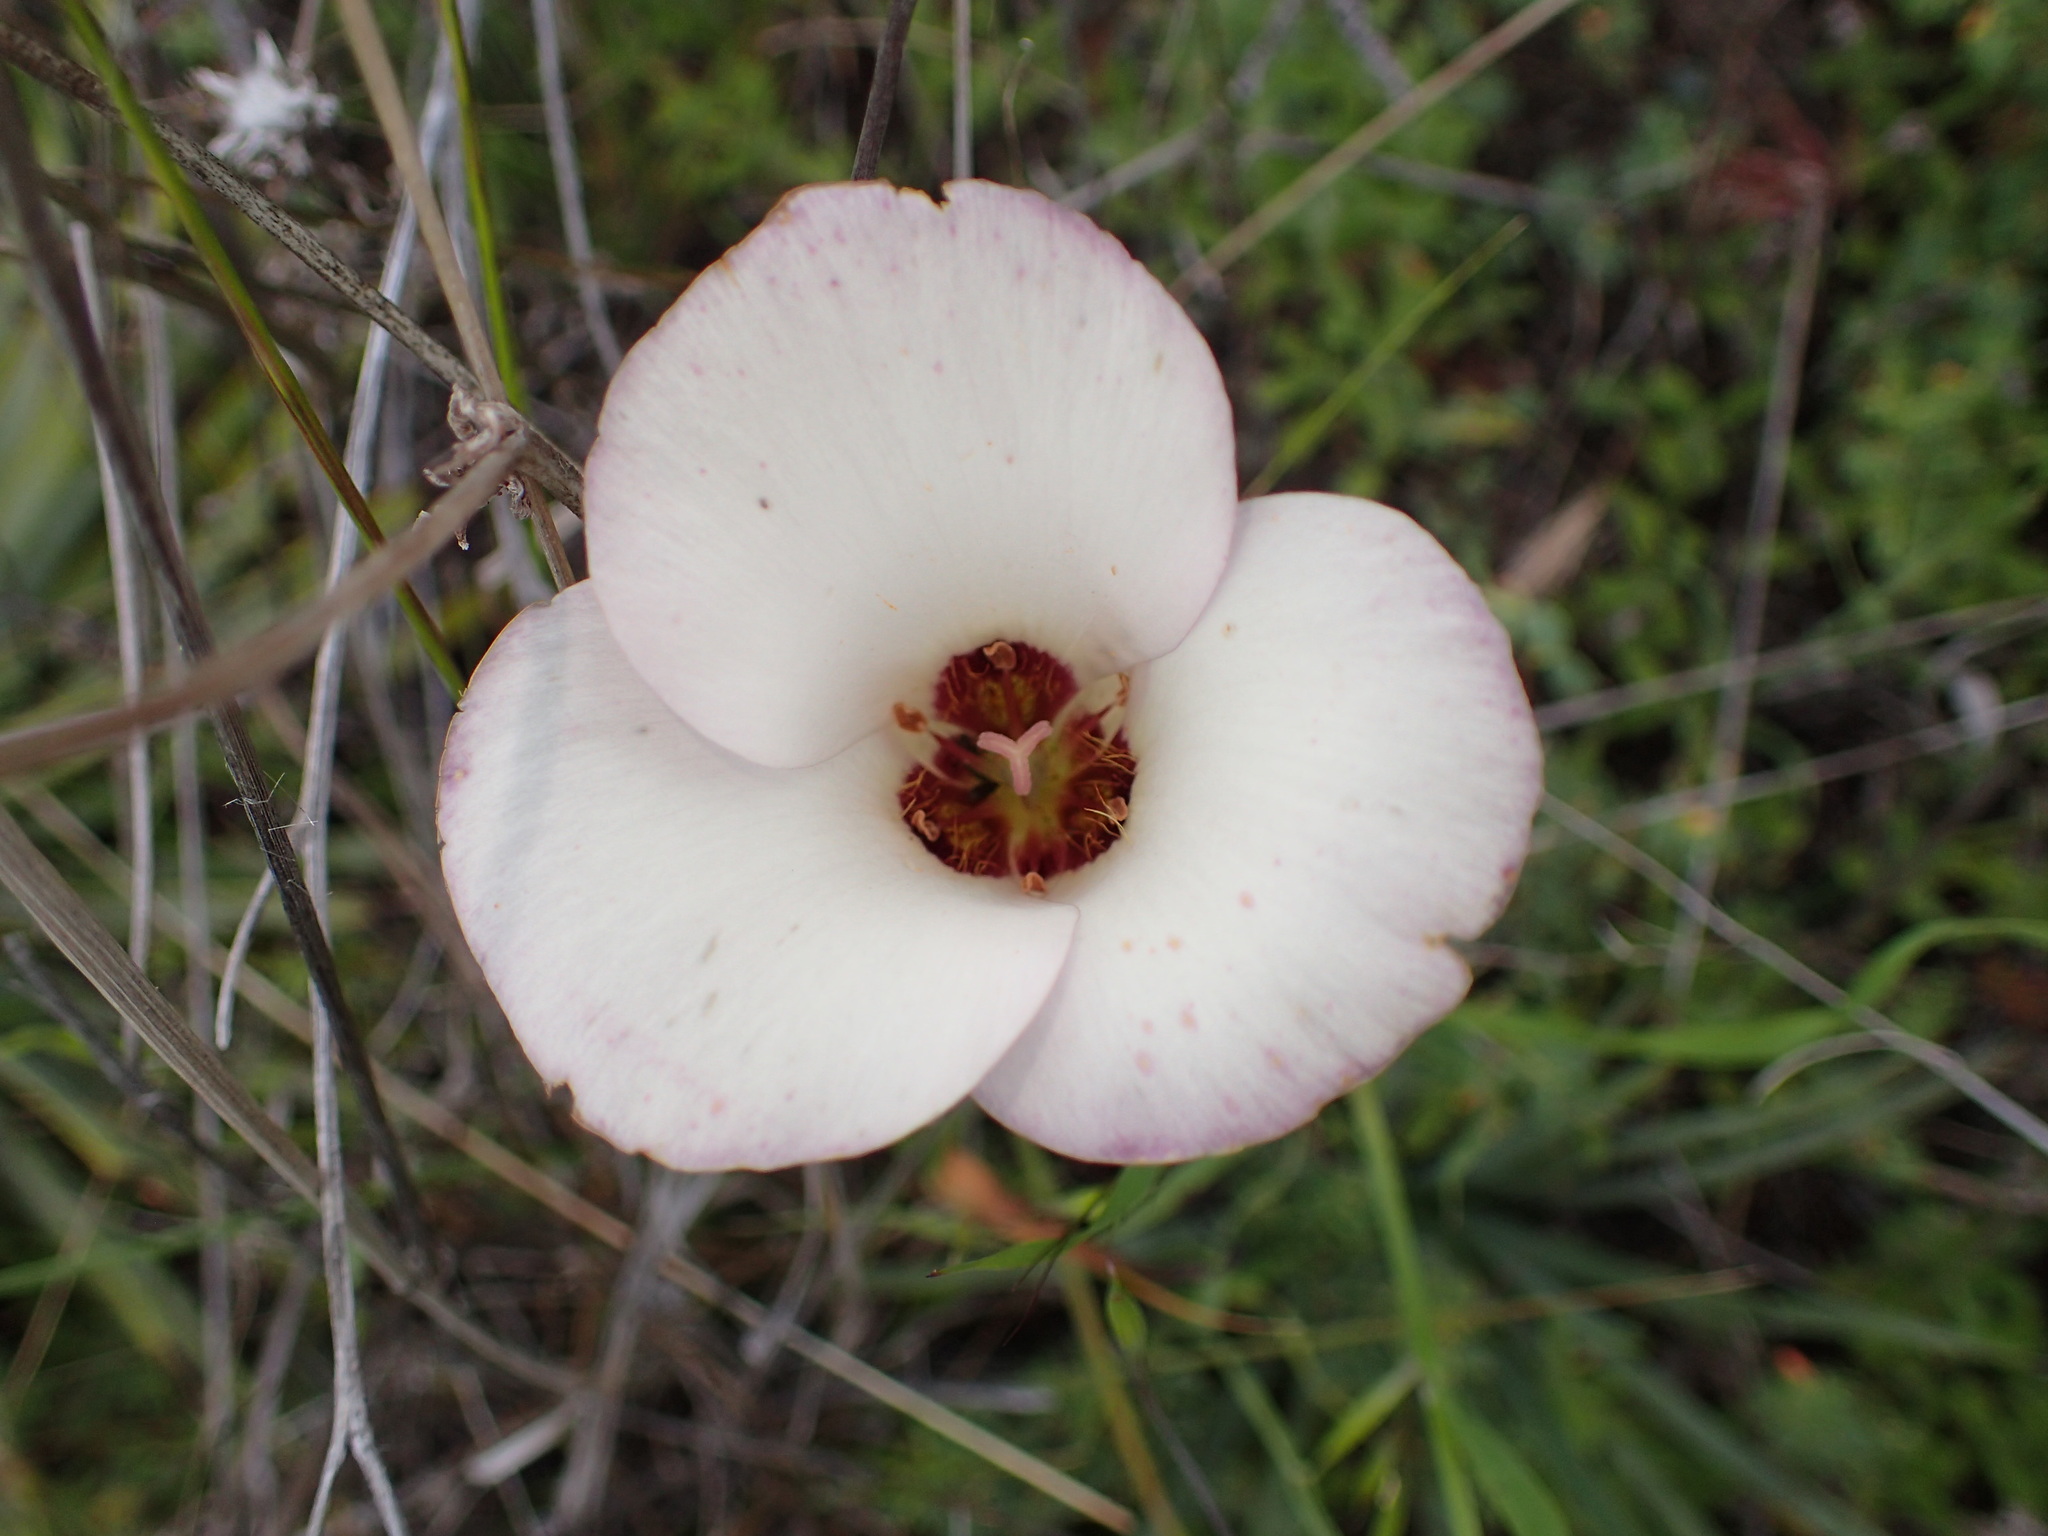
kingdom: Plantae
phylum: Tracheophyta
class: Liliopsida
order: Liliales
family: Liliaceae
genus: Calochortus
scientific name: Calochortus catalinae
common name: Catalina mariposa-lily
